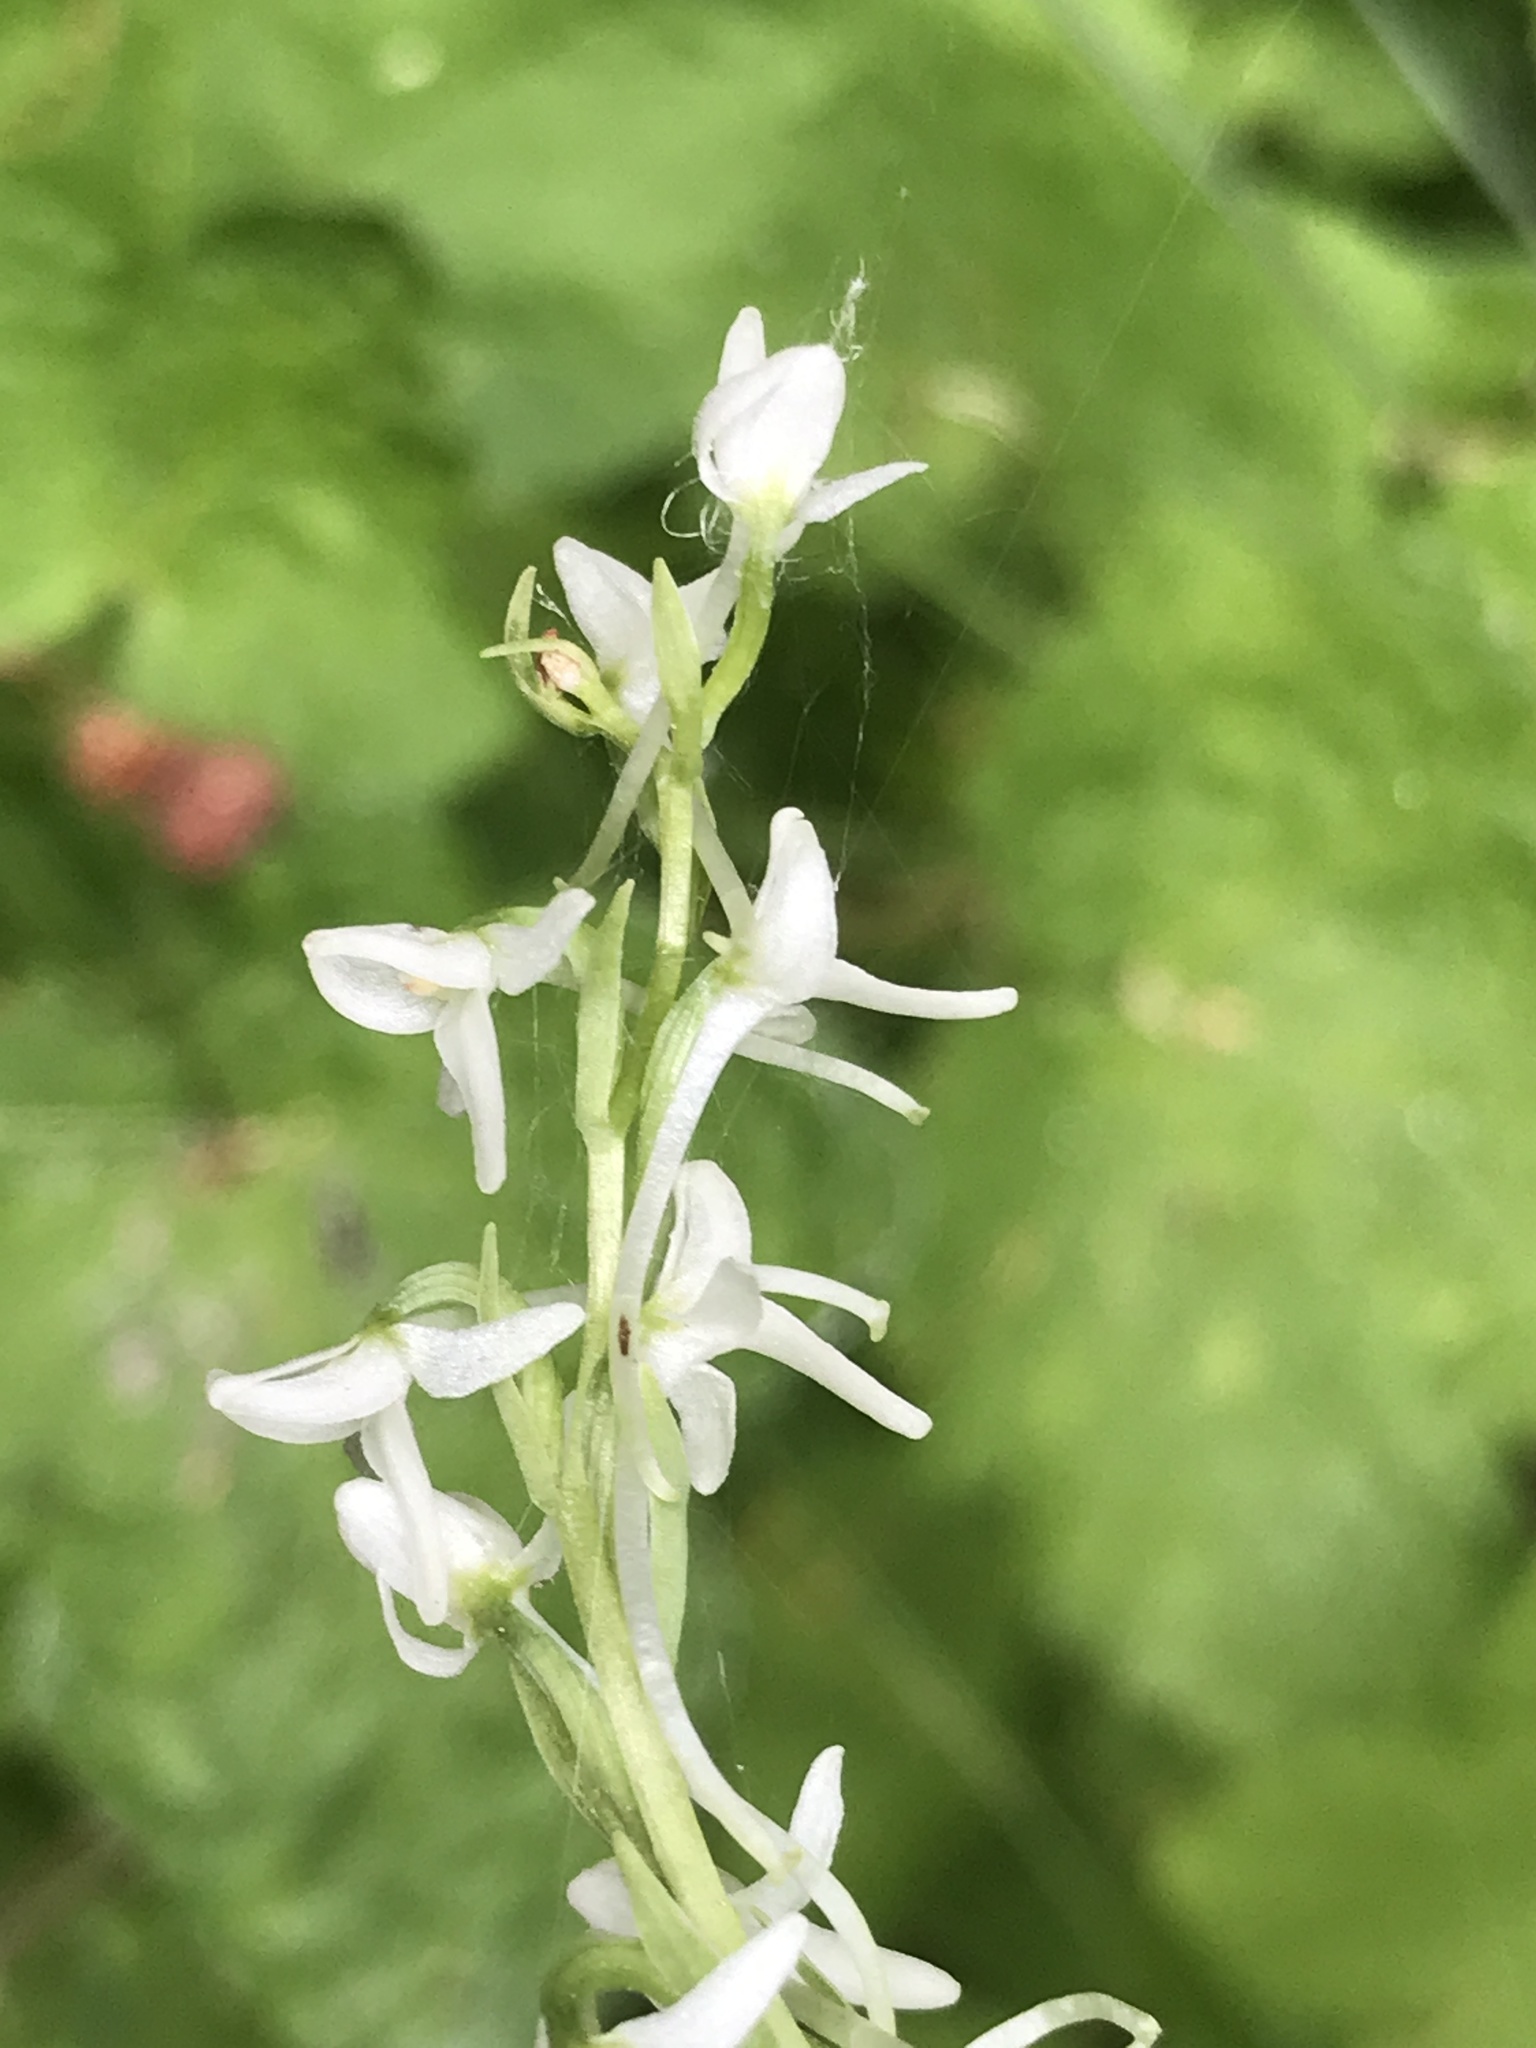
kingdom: Plantae
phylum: Tracheophyta
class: Liliopsida
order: Asparagales
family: Orchidaceae
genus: Platanthera
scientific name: Platanthera dilatata
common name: Bog candles
